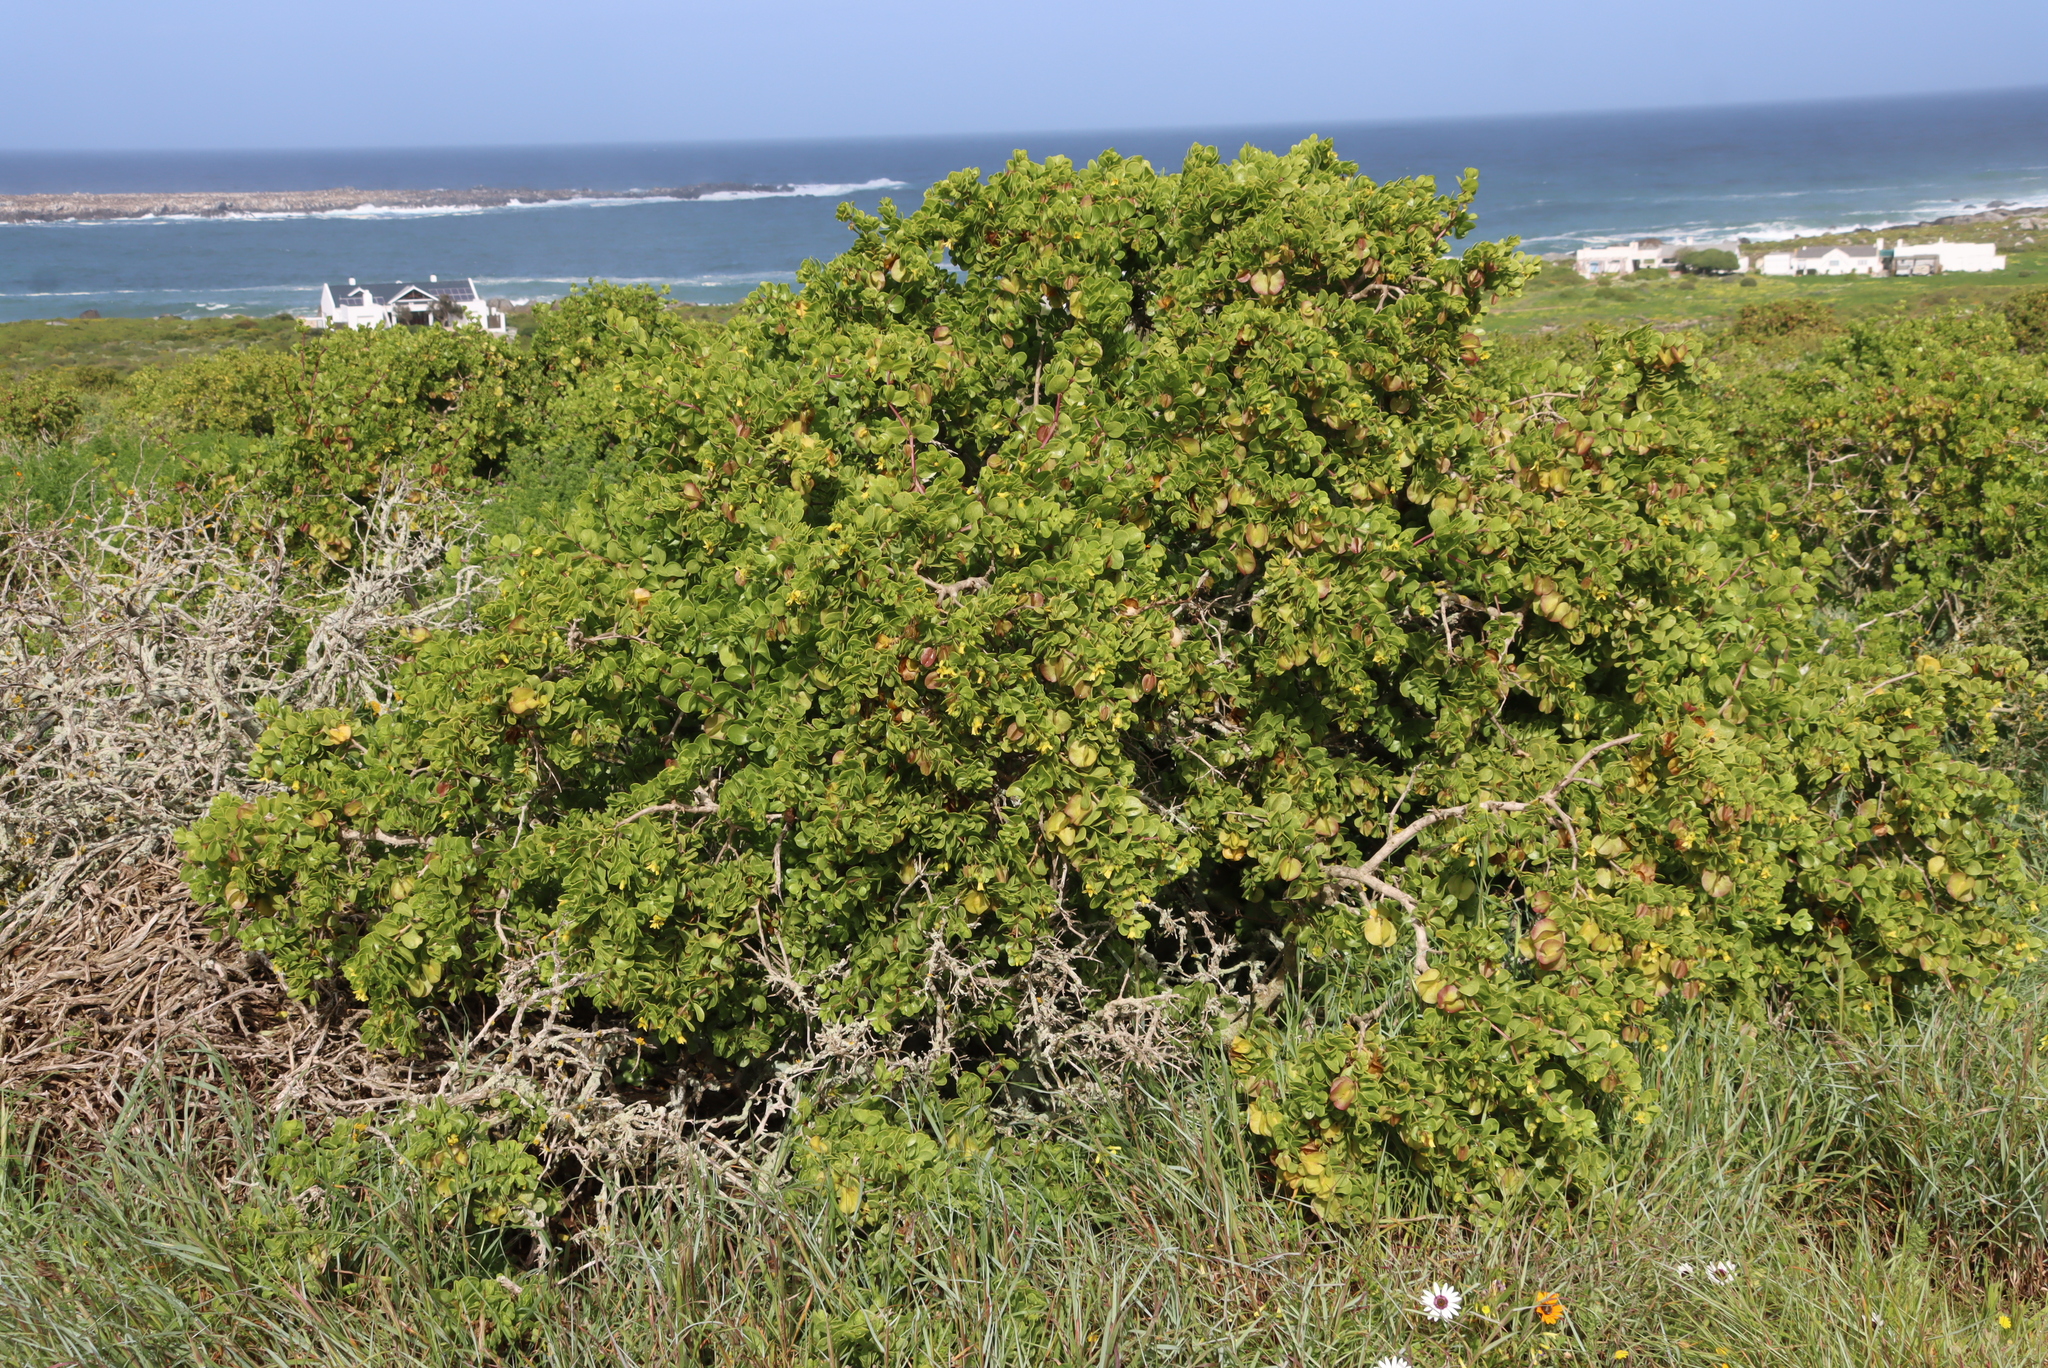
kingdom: Plantae
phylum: Tracheophyta
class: Magnoliopsida
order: Zygophyllales
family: Zygophyllaceae
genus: Roepera
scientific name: Roepera morgsana
